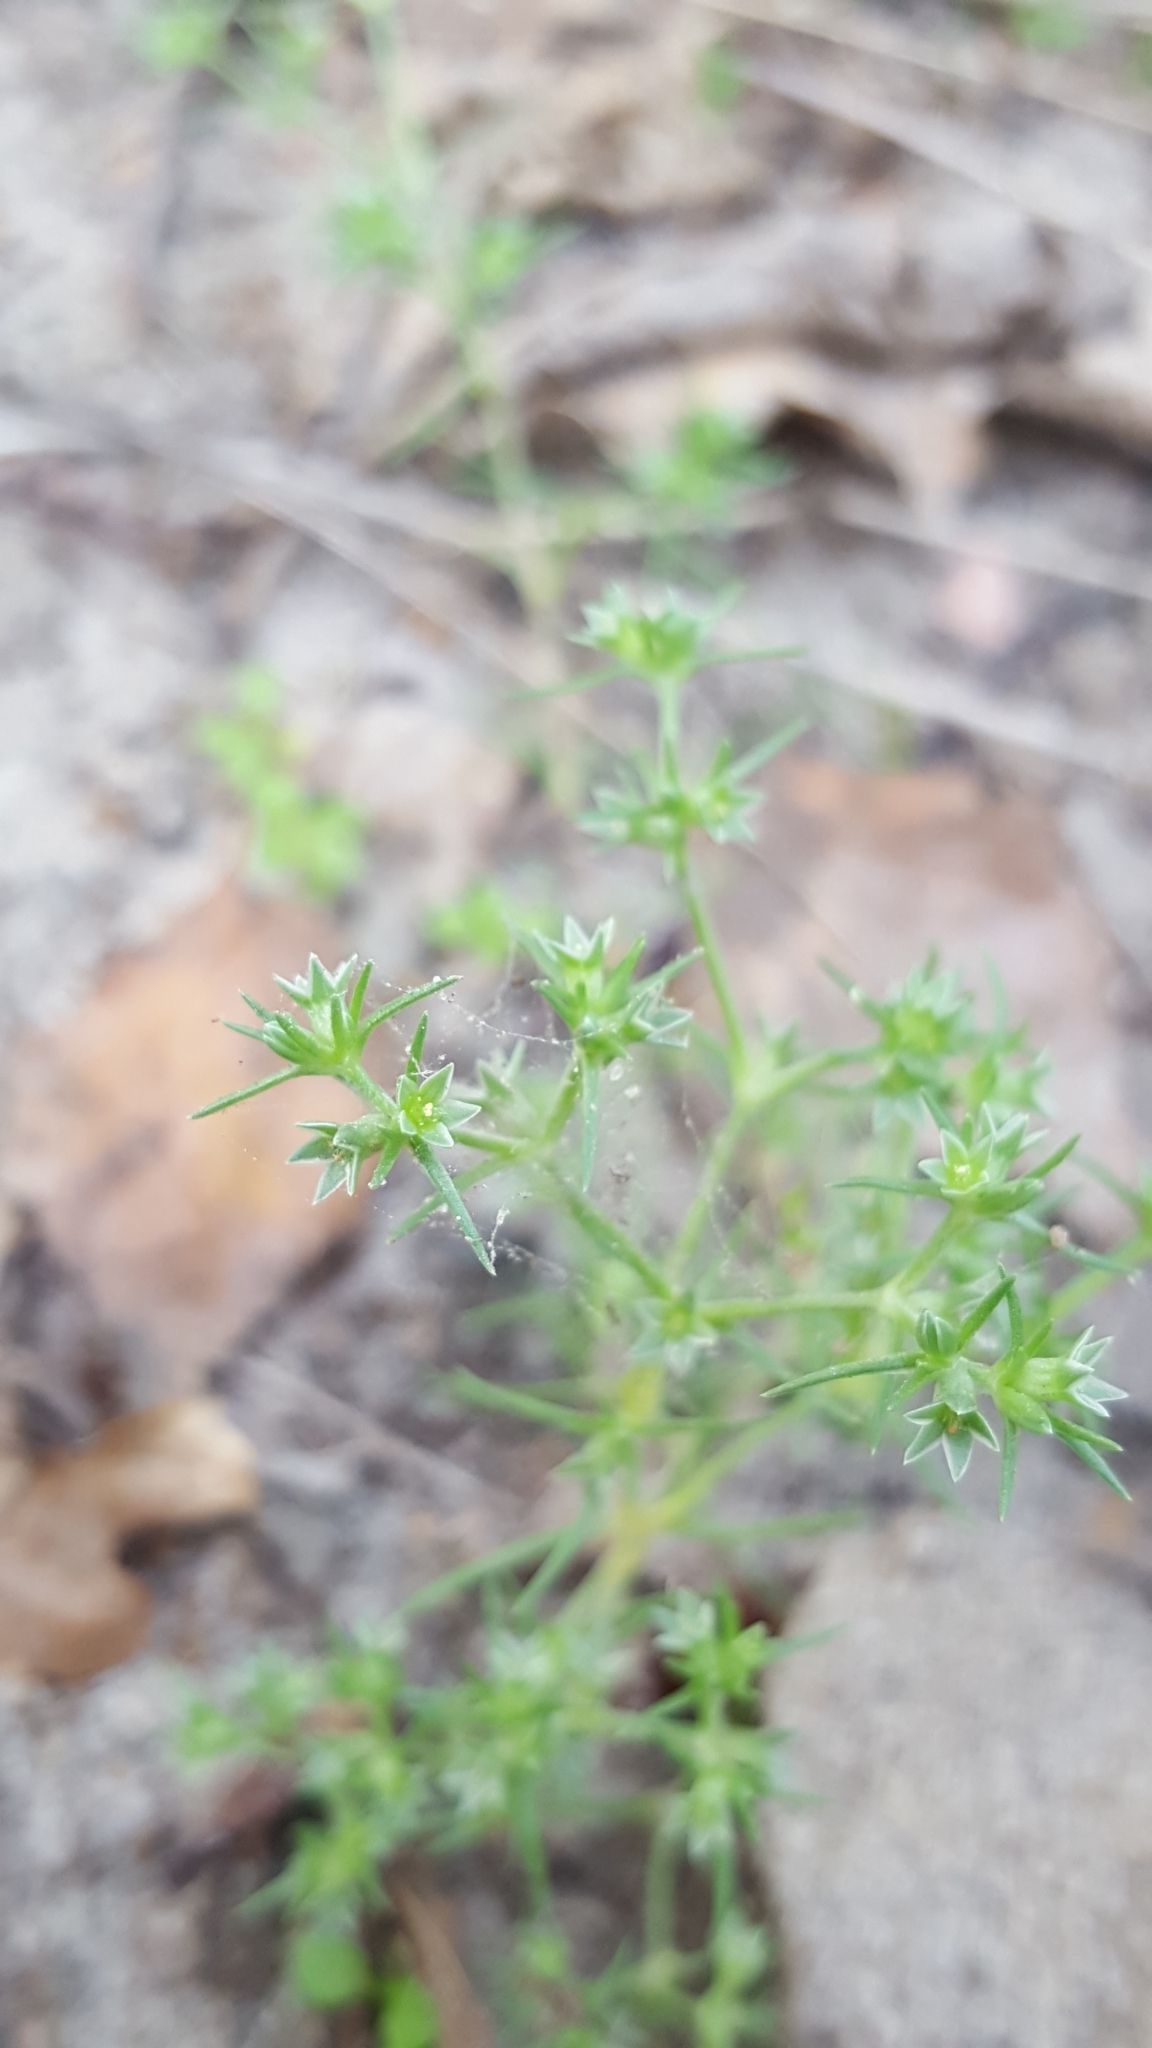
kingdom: Plantae
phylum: Tracheophyta
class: Magnoliopsida
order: Caryophyllales
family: Caryophyllaceae
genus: Scleranthus
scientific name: Scleranthus annuus
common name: Annual knawel
